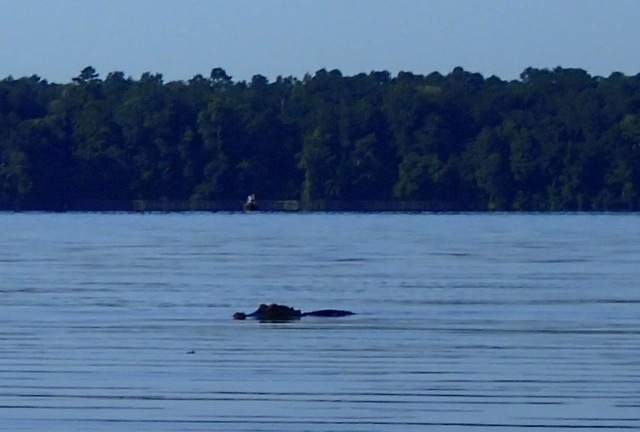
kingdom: Animalia
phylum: Chordata
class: Crocodylia
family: Alligatoridae
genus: Alligator
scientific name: Alligator mississippiensis
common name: American alligator
